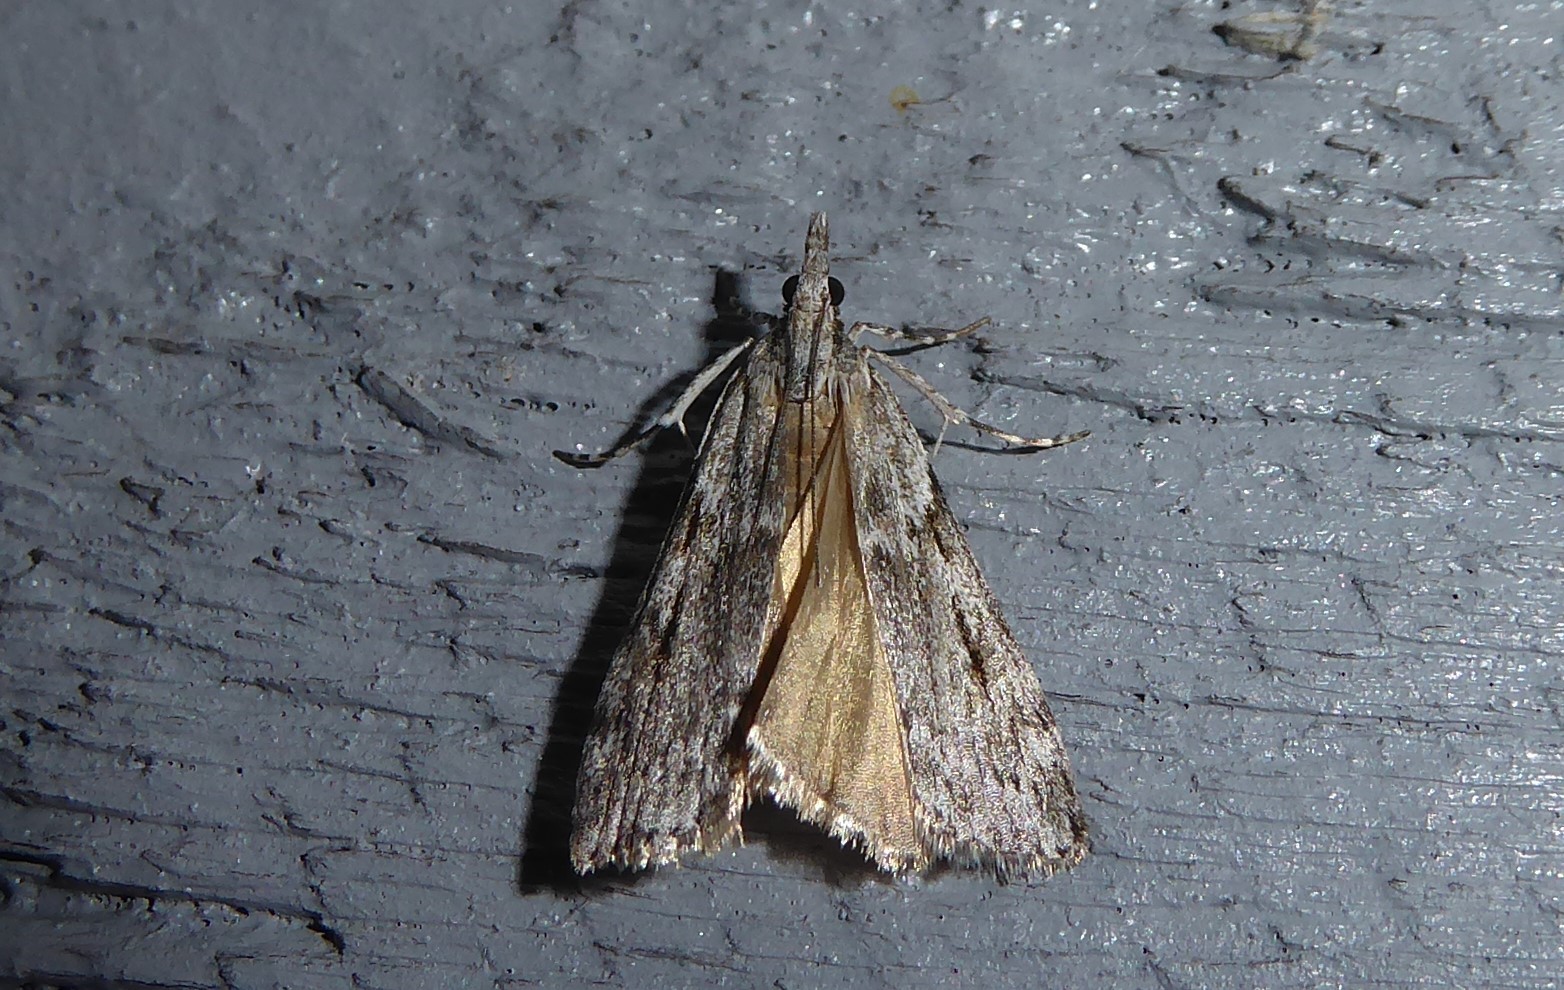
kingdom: Animalia
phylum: Arthropoda
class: Insecta
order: Lepidoptera
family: Crambidae
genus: Scoparia
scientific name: Scoparia halopis
